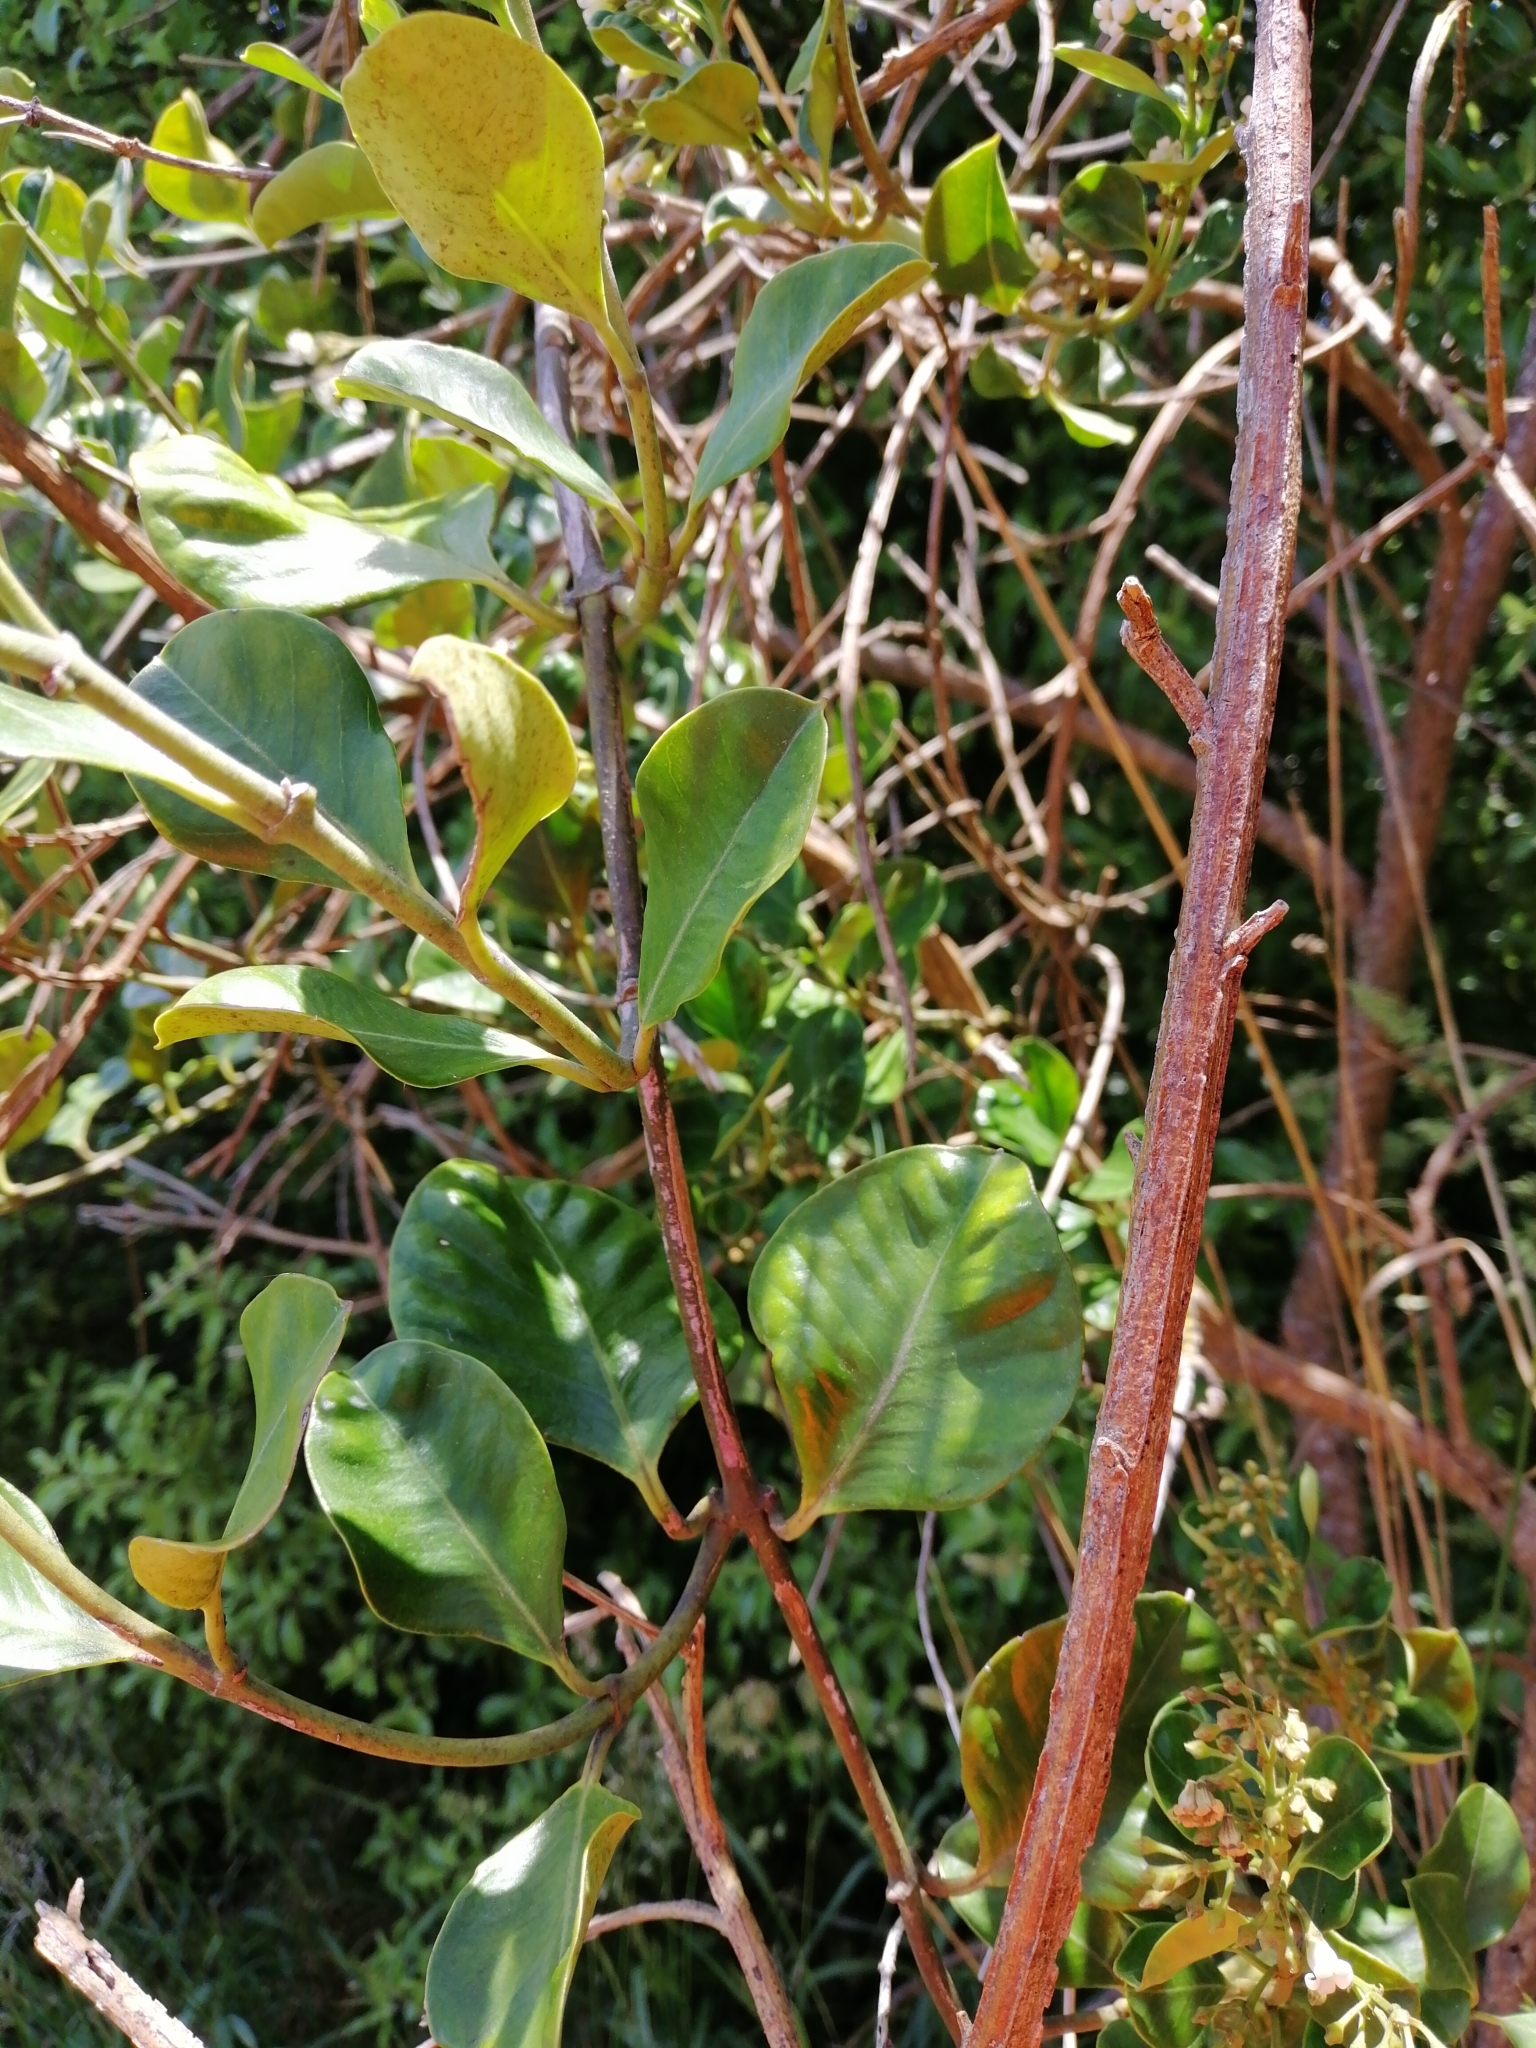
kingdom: Plantae
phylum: Tracheophyta
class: Magnoliopsida
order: Gentianales
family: Apocynaceae
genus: Parsonsia
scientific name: Parsonsia heterophylla
